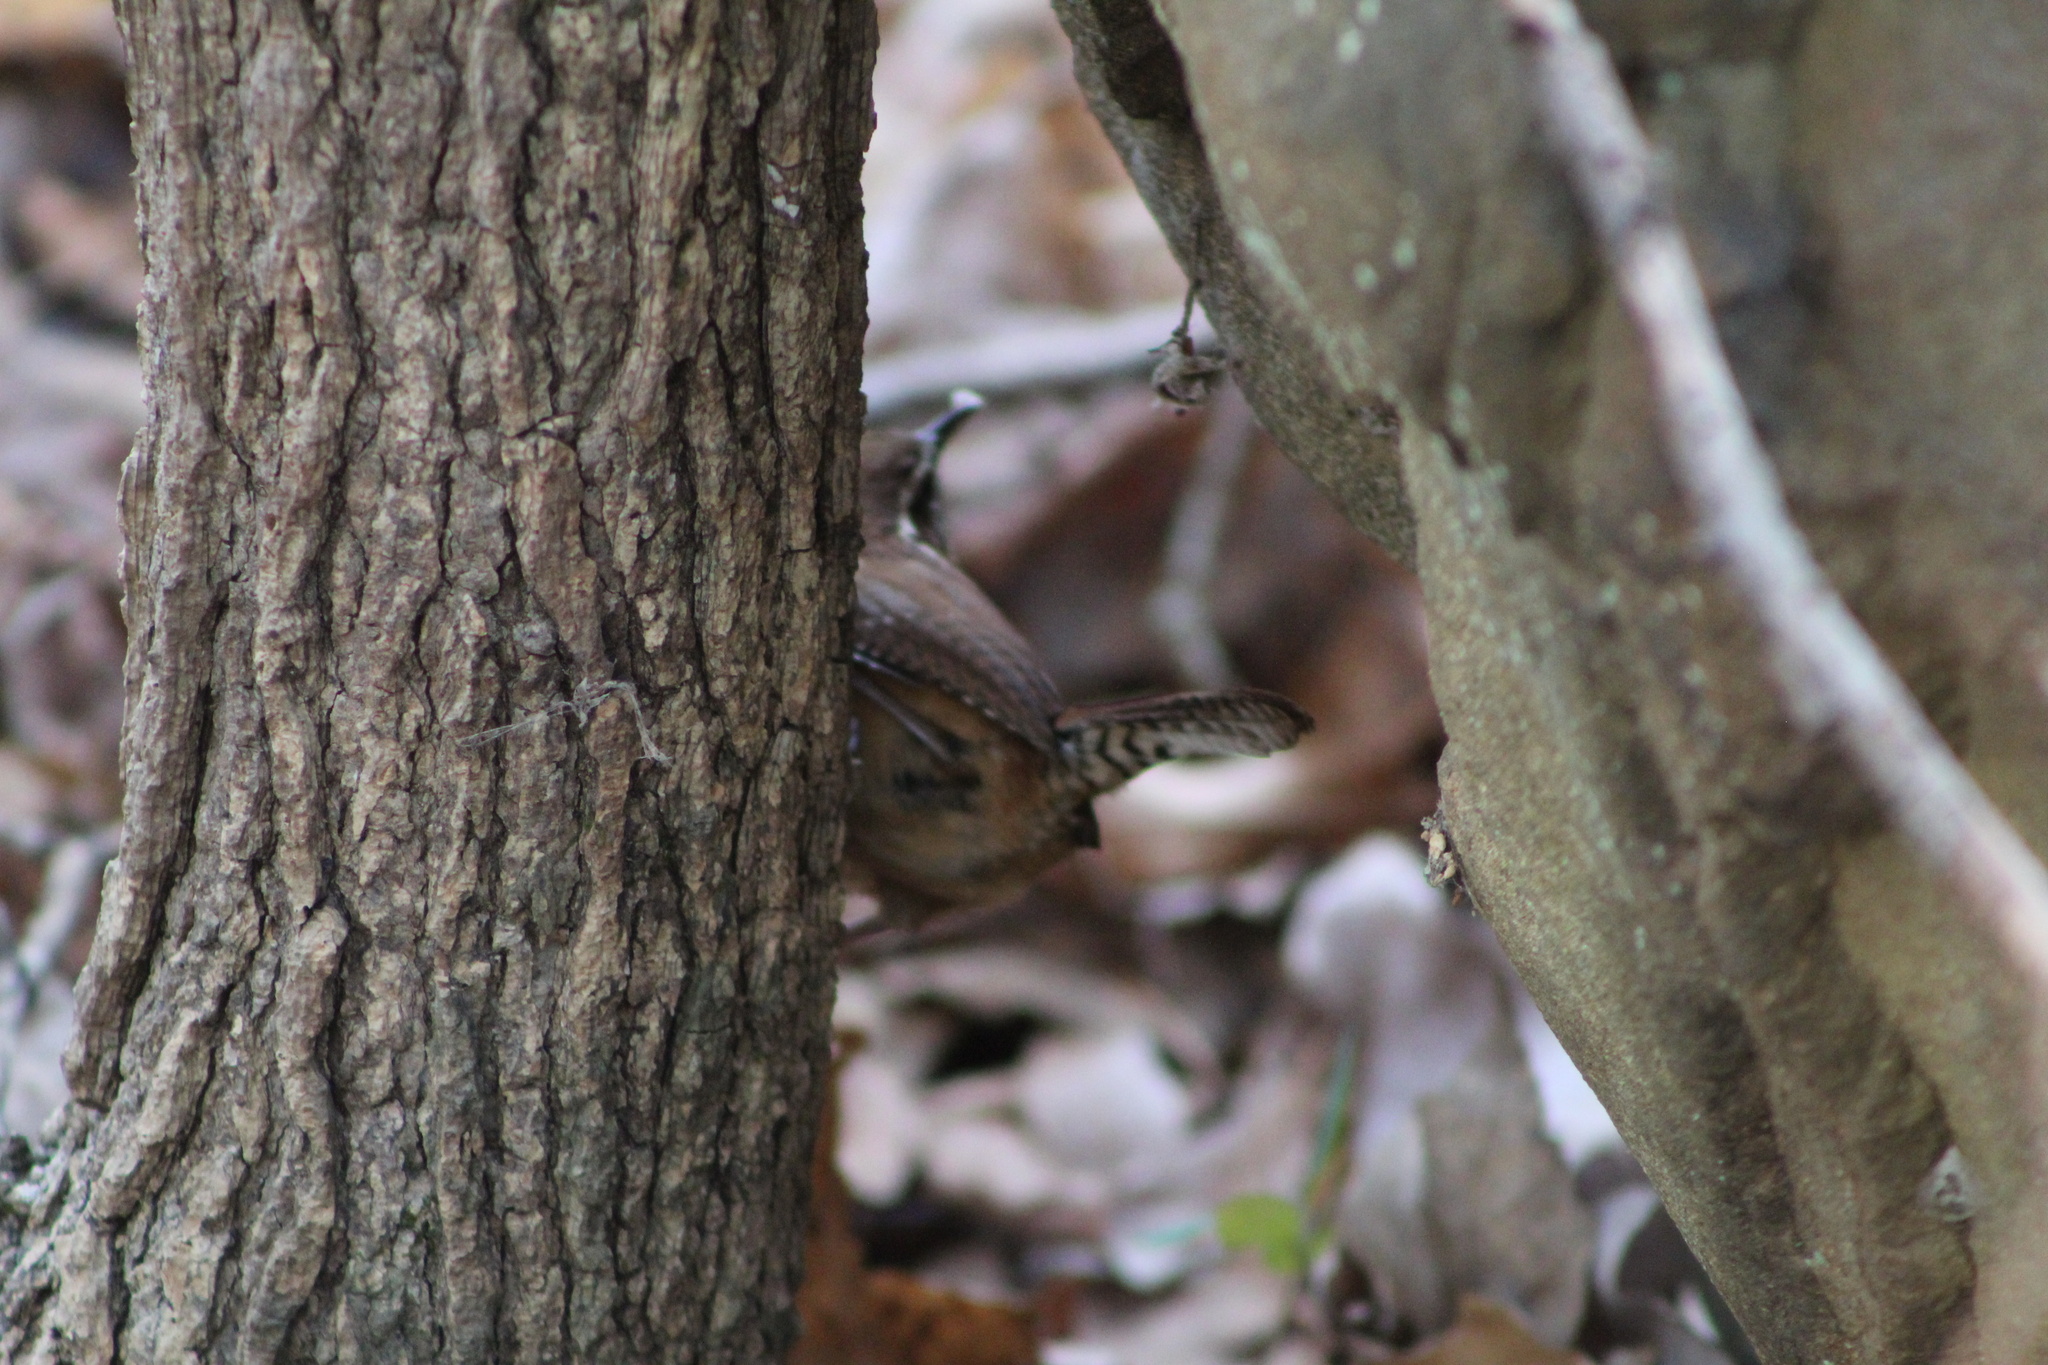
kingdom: Animalia
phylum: Chordata
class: Aves
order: Passeriformes
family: Troglodytidae
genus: Thryothorus
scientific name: Thryothorus ludovicianus
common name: Carolina wren
